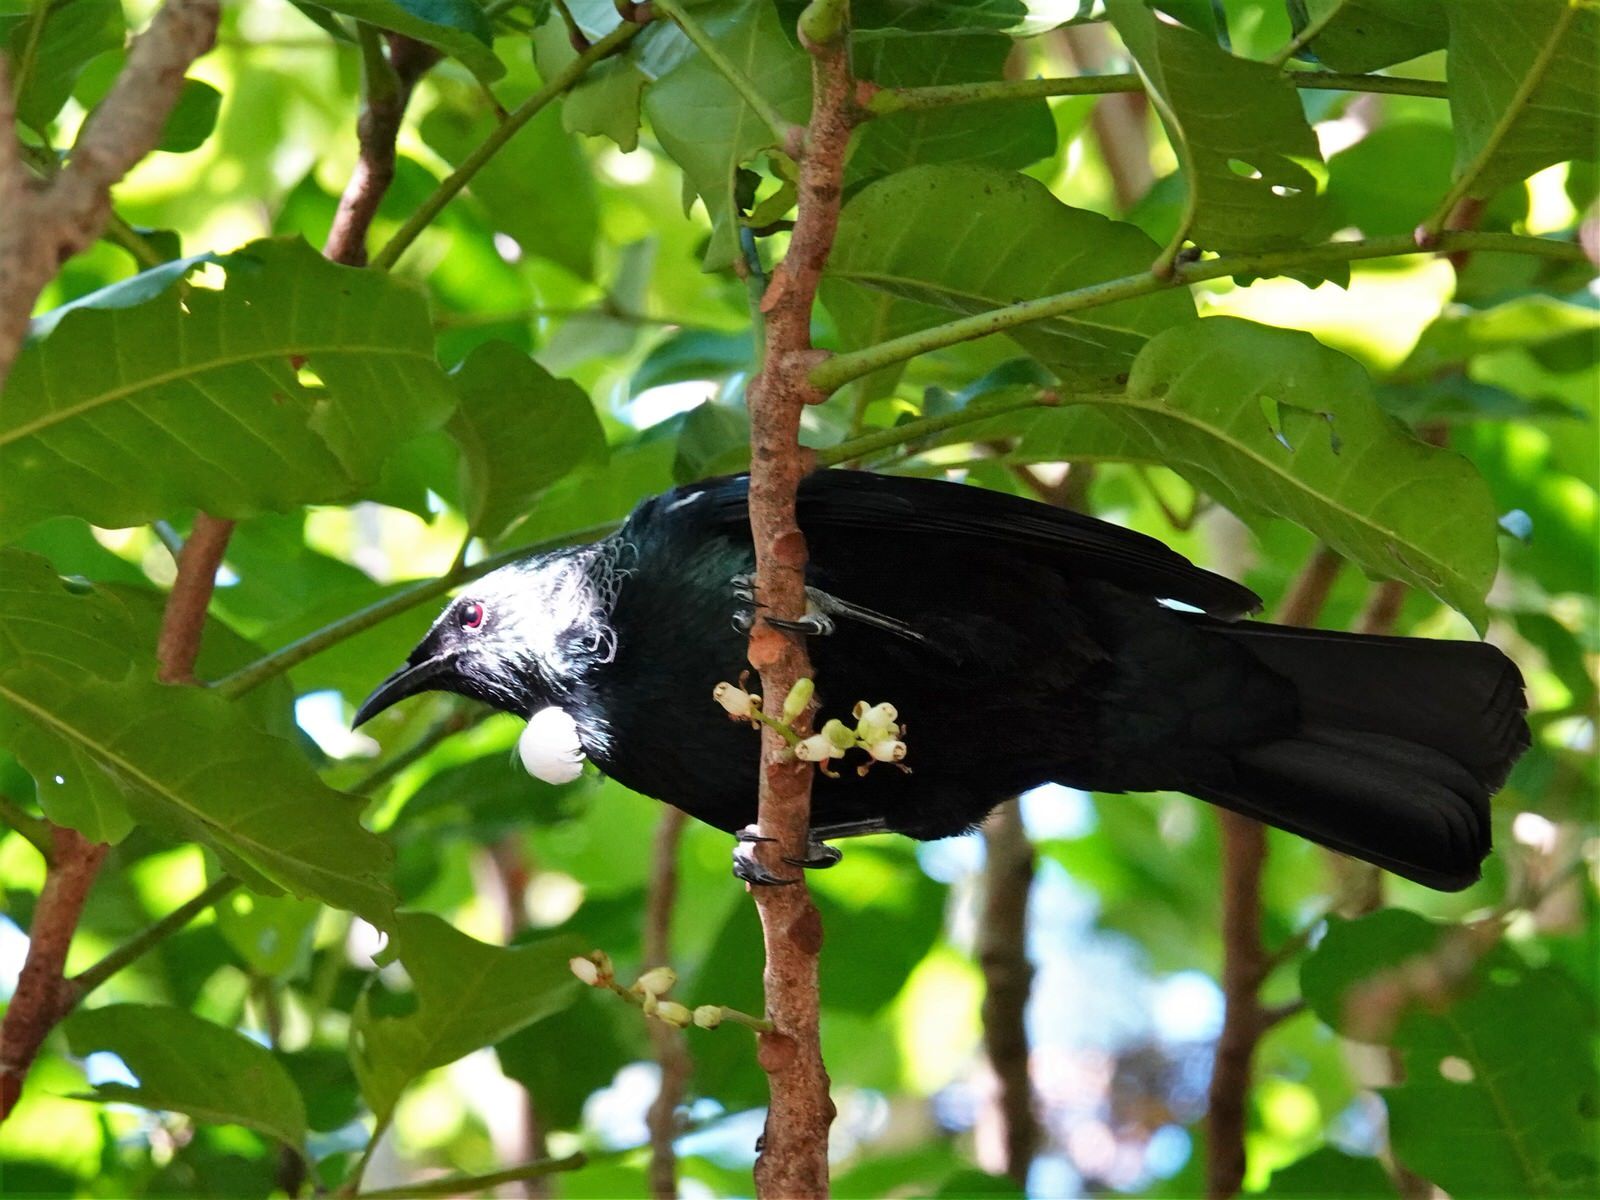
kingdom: Animalia
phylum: Chordata
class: Aves
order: Passeriformes
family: Meliphagidae
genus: Prosthemadera
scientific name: Prosthemadera novaeseelandiae
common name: Tui
